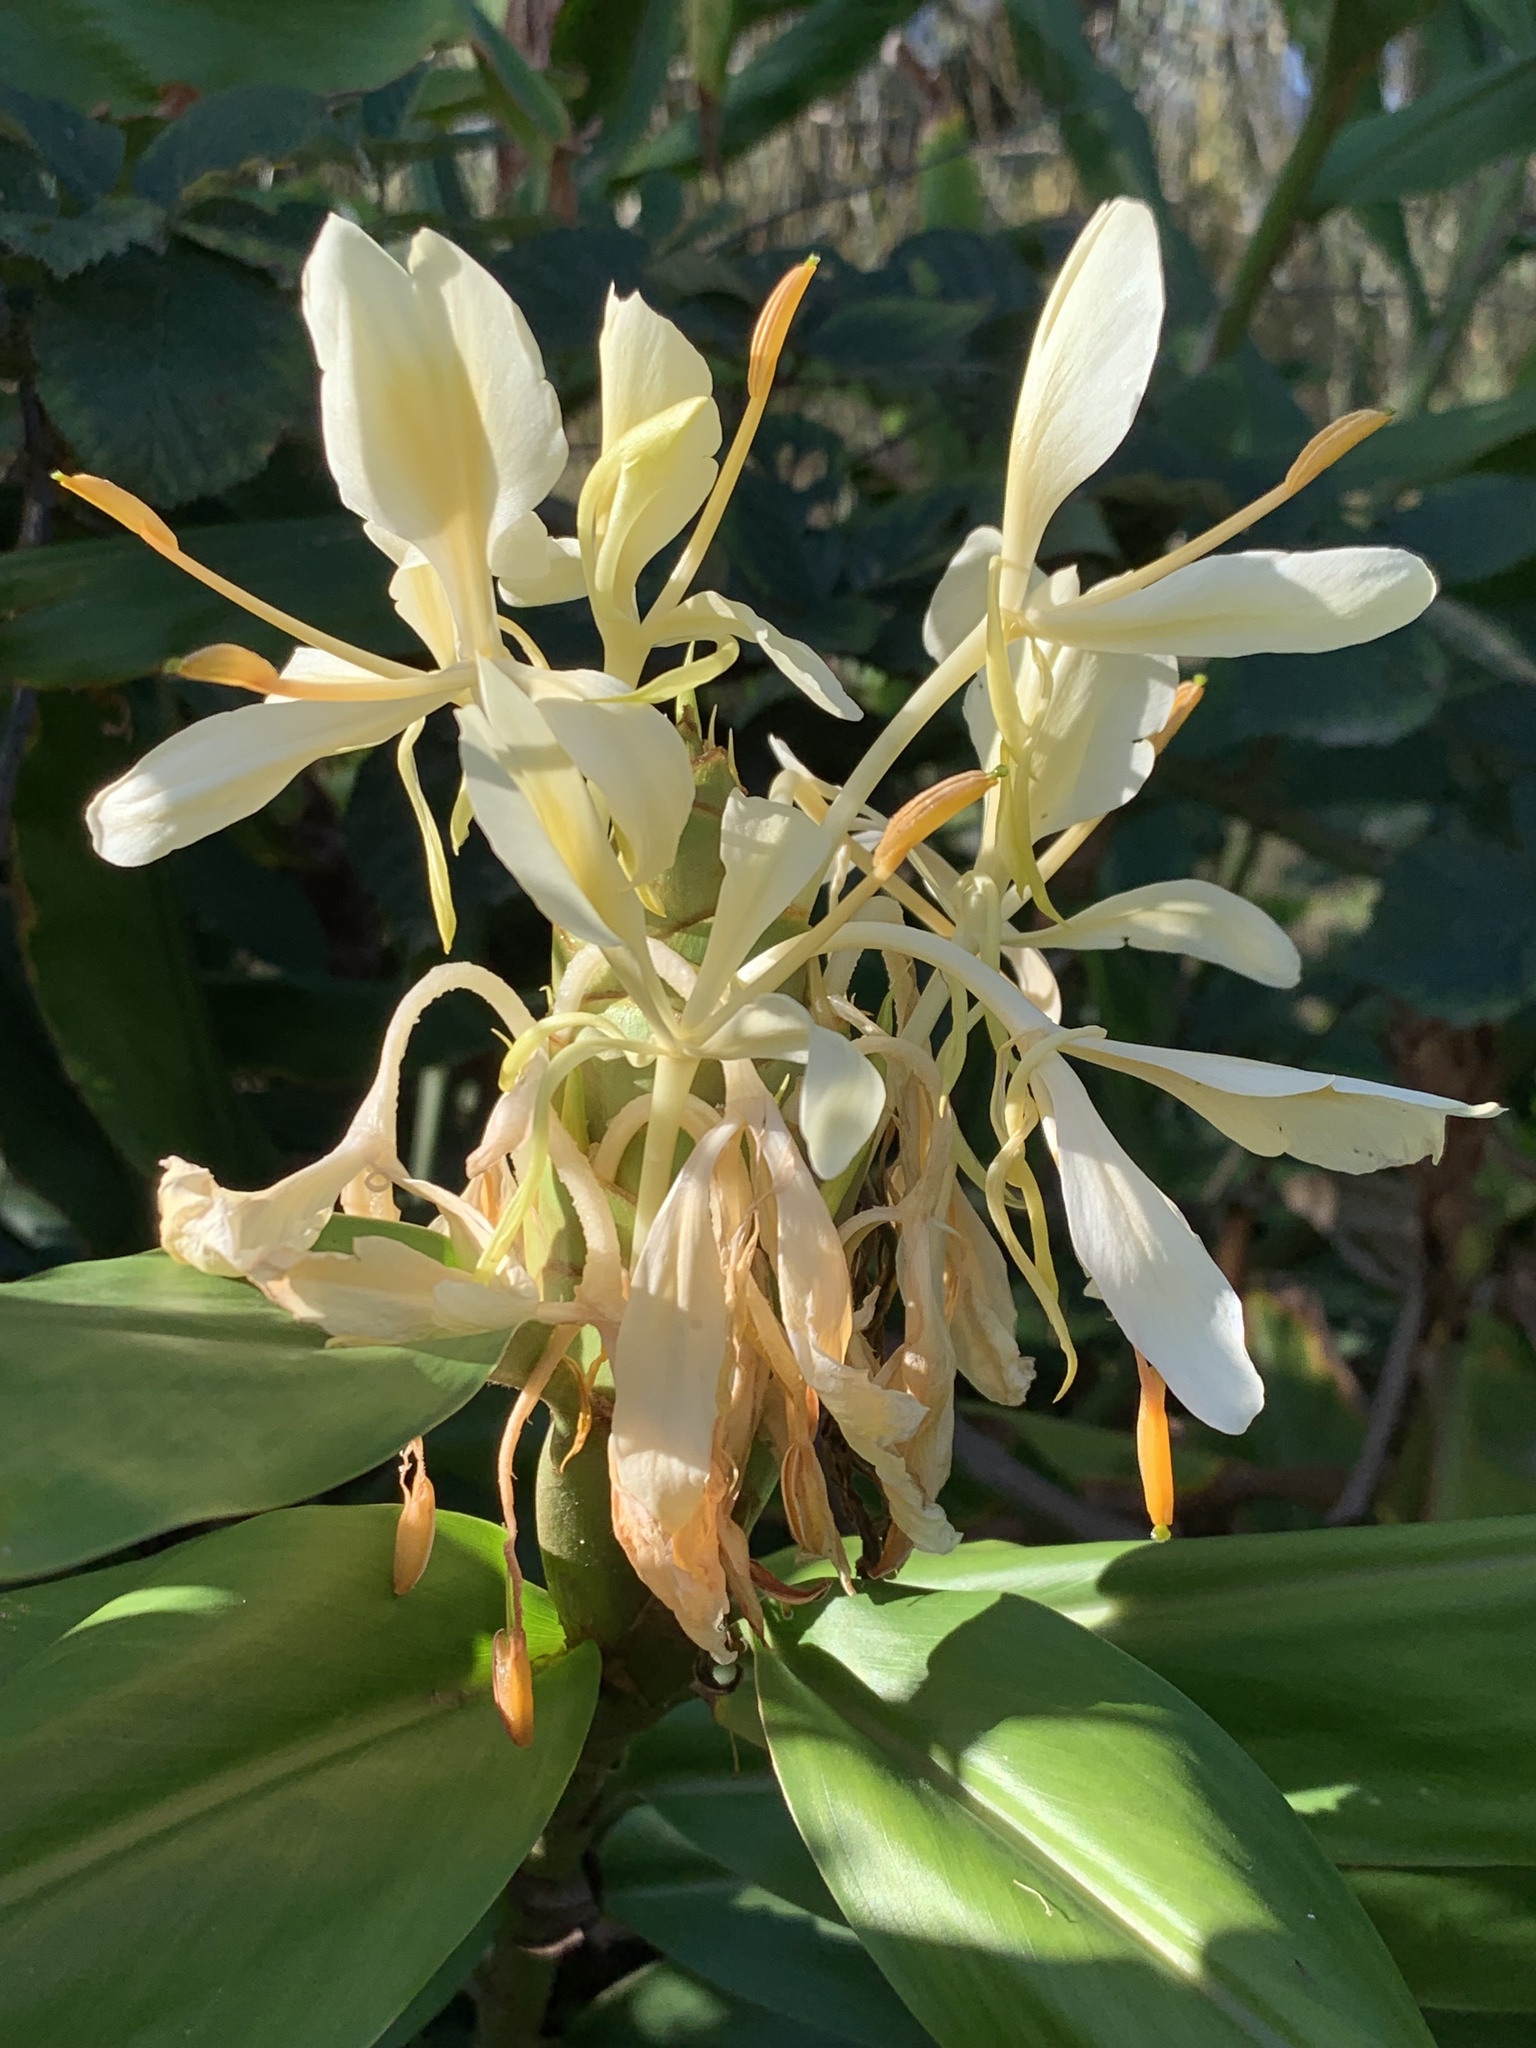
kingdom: Plantae
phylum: Tracheophyta
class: Liliopsida
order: Zingiberales
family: Zingiberaceae
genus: Hedychium
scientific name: Hedychium flavescens
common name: Yellow ginger
